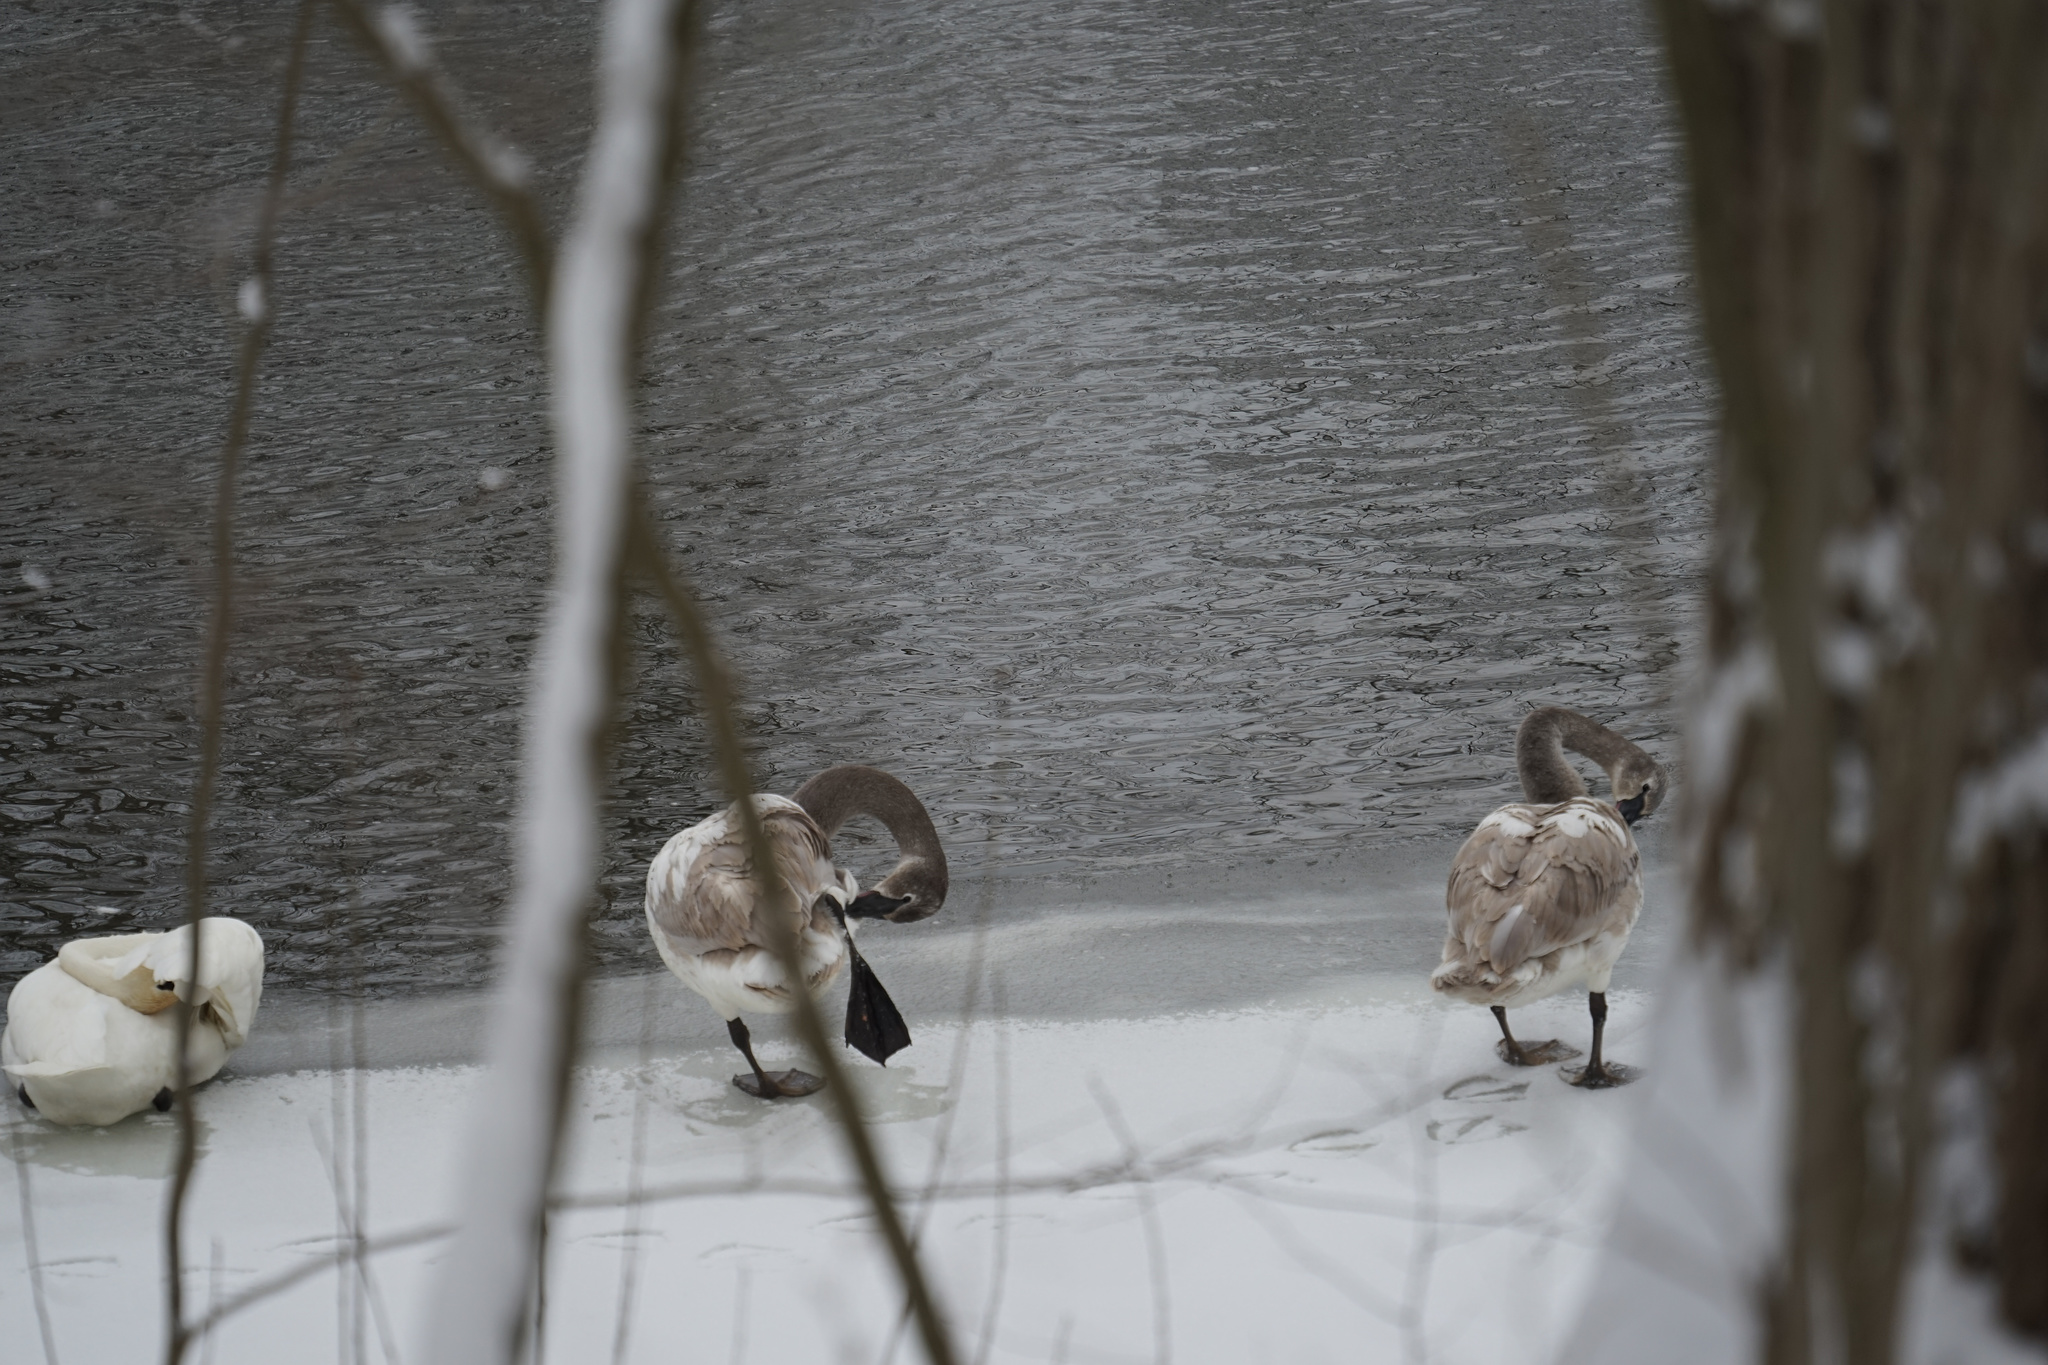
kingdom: Animalia
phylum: Chordata
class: Aves
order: Anseriformes
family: Anatidae
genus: Cygnus
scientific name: Cygnus buccinator
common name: Trumpeter swan
